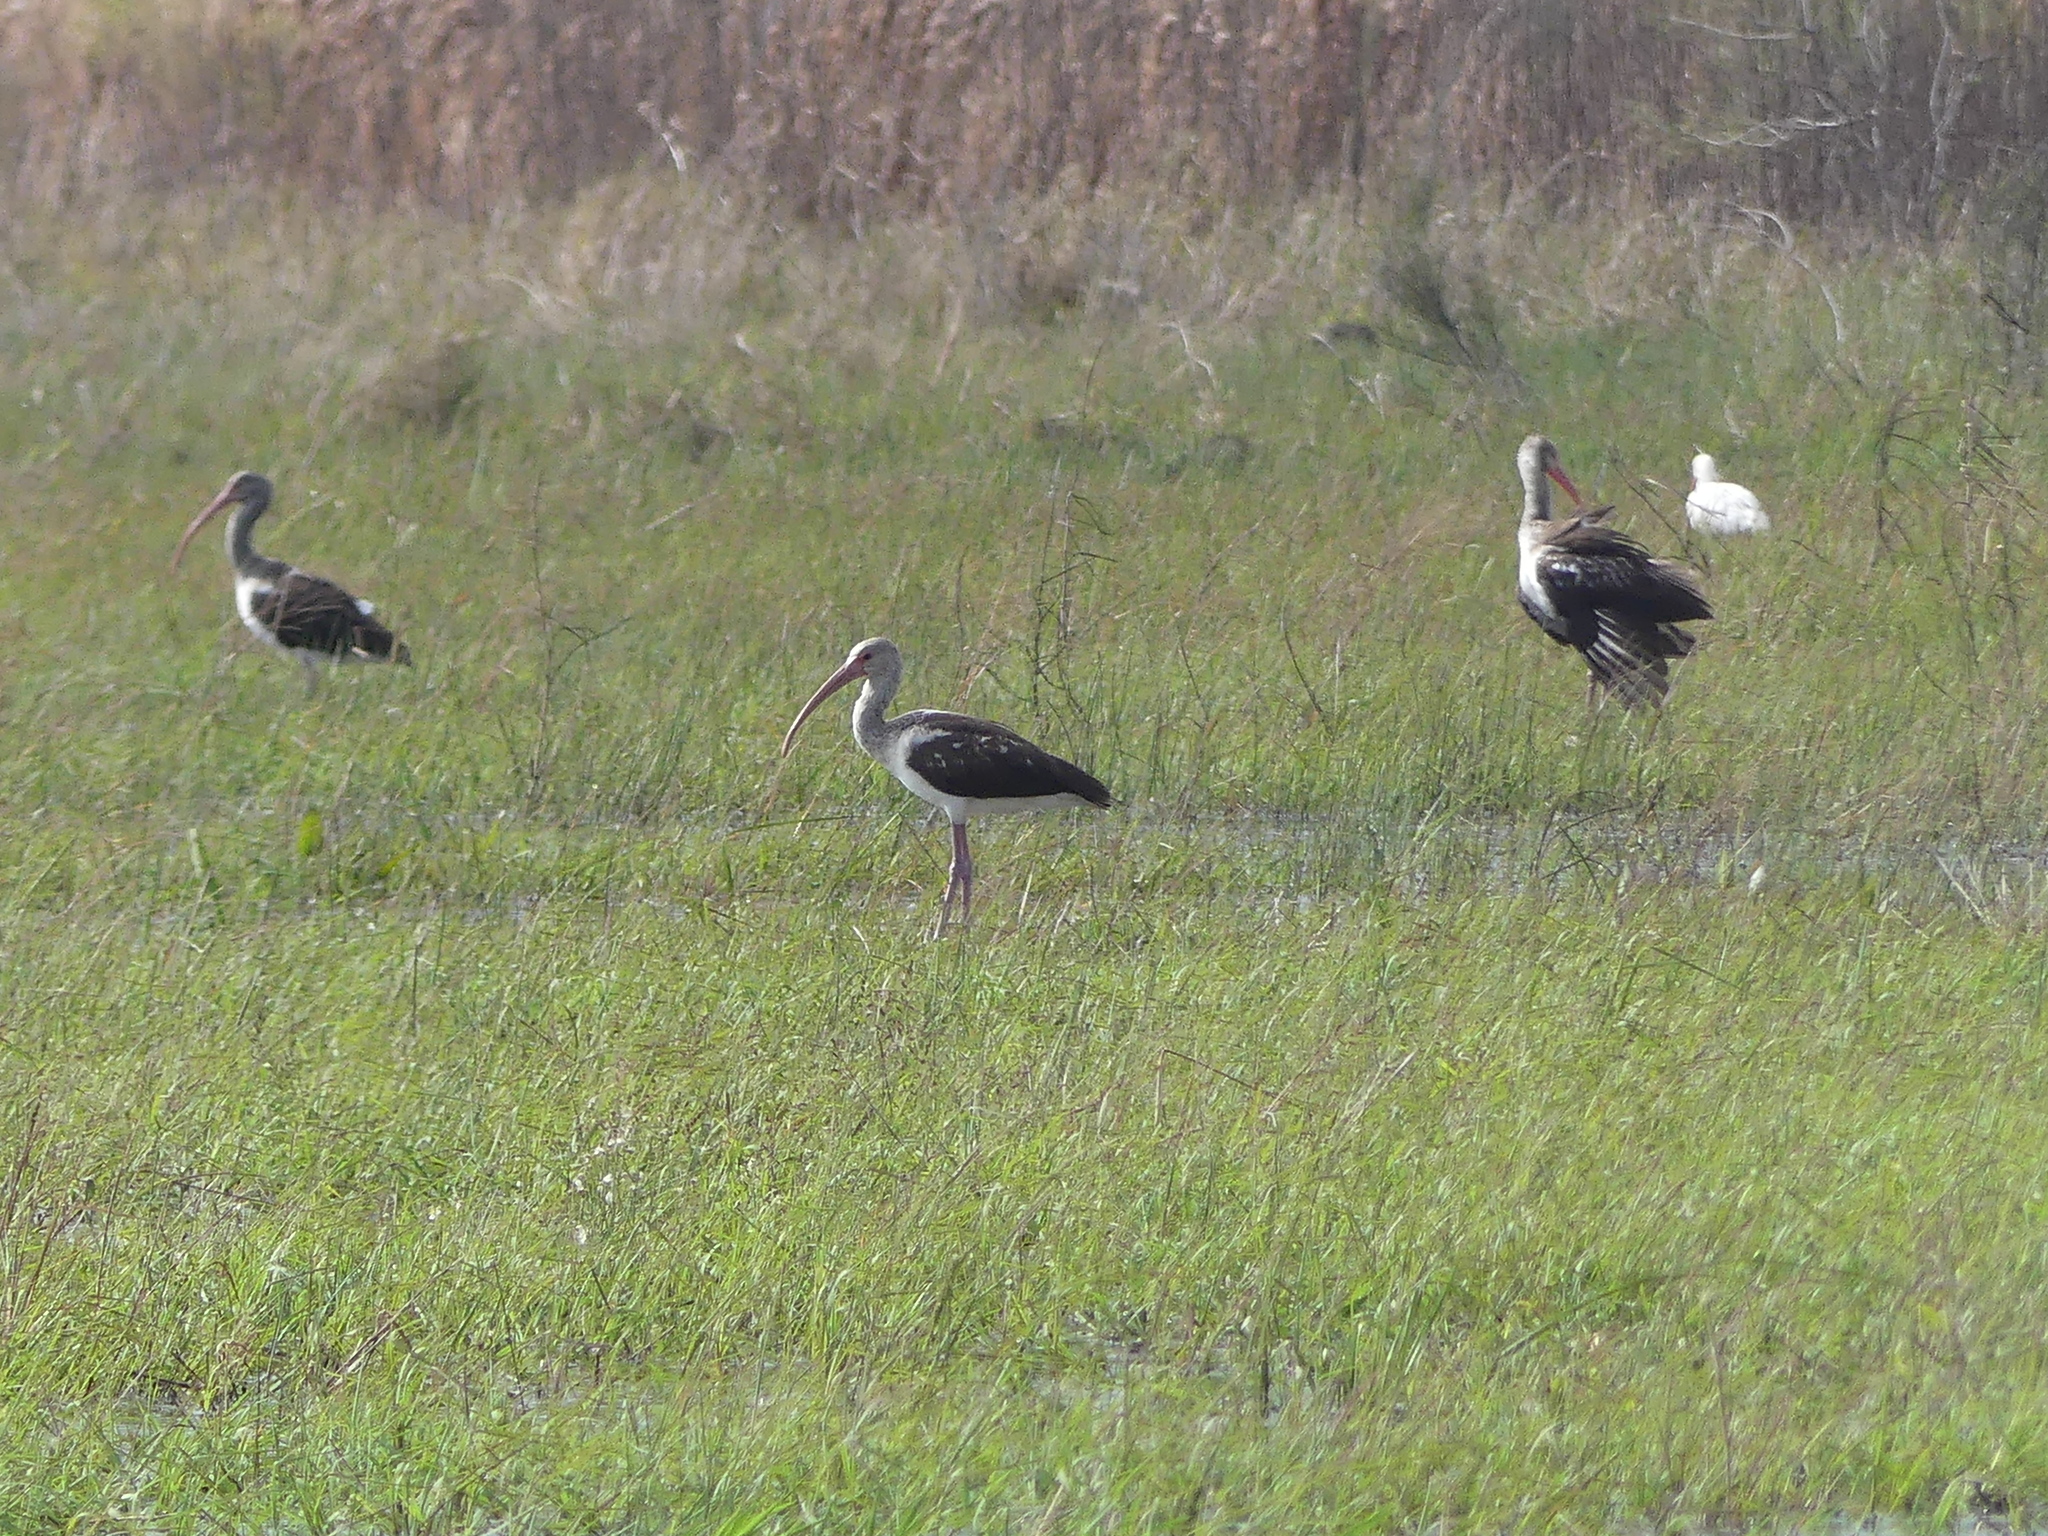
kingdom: Animalia
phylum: Chordata
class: Aves
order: Pelecaniformes
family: Threskiornithidae
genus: Eudocimus
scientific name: Eudocimus albus
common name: White ibis
